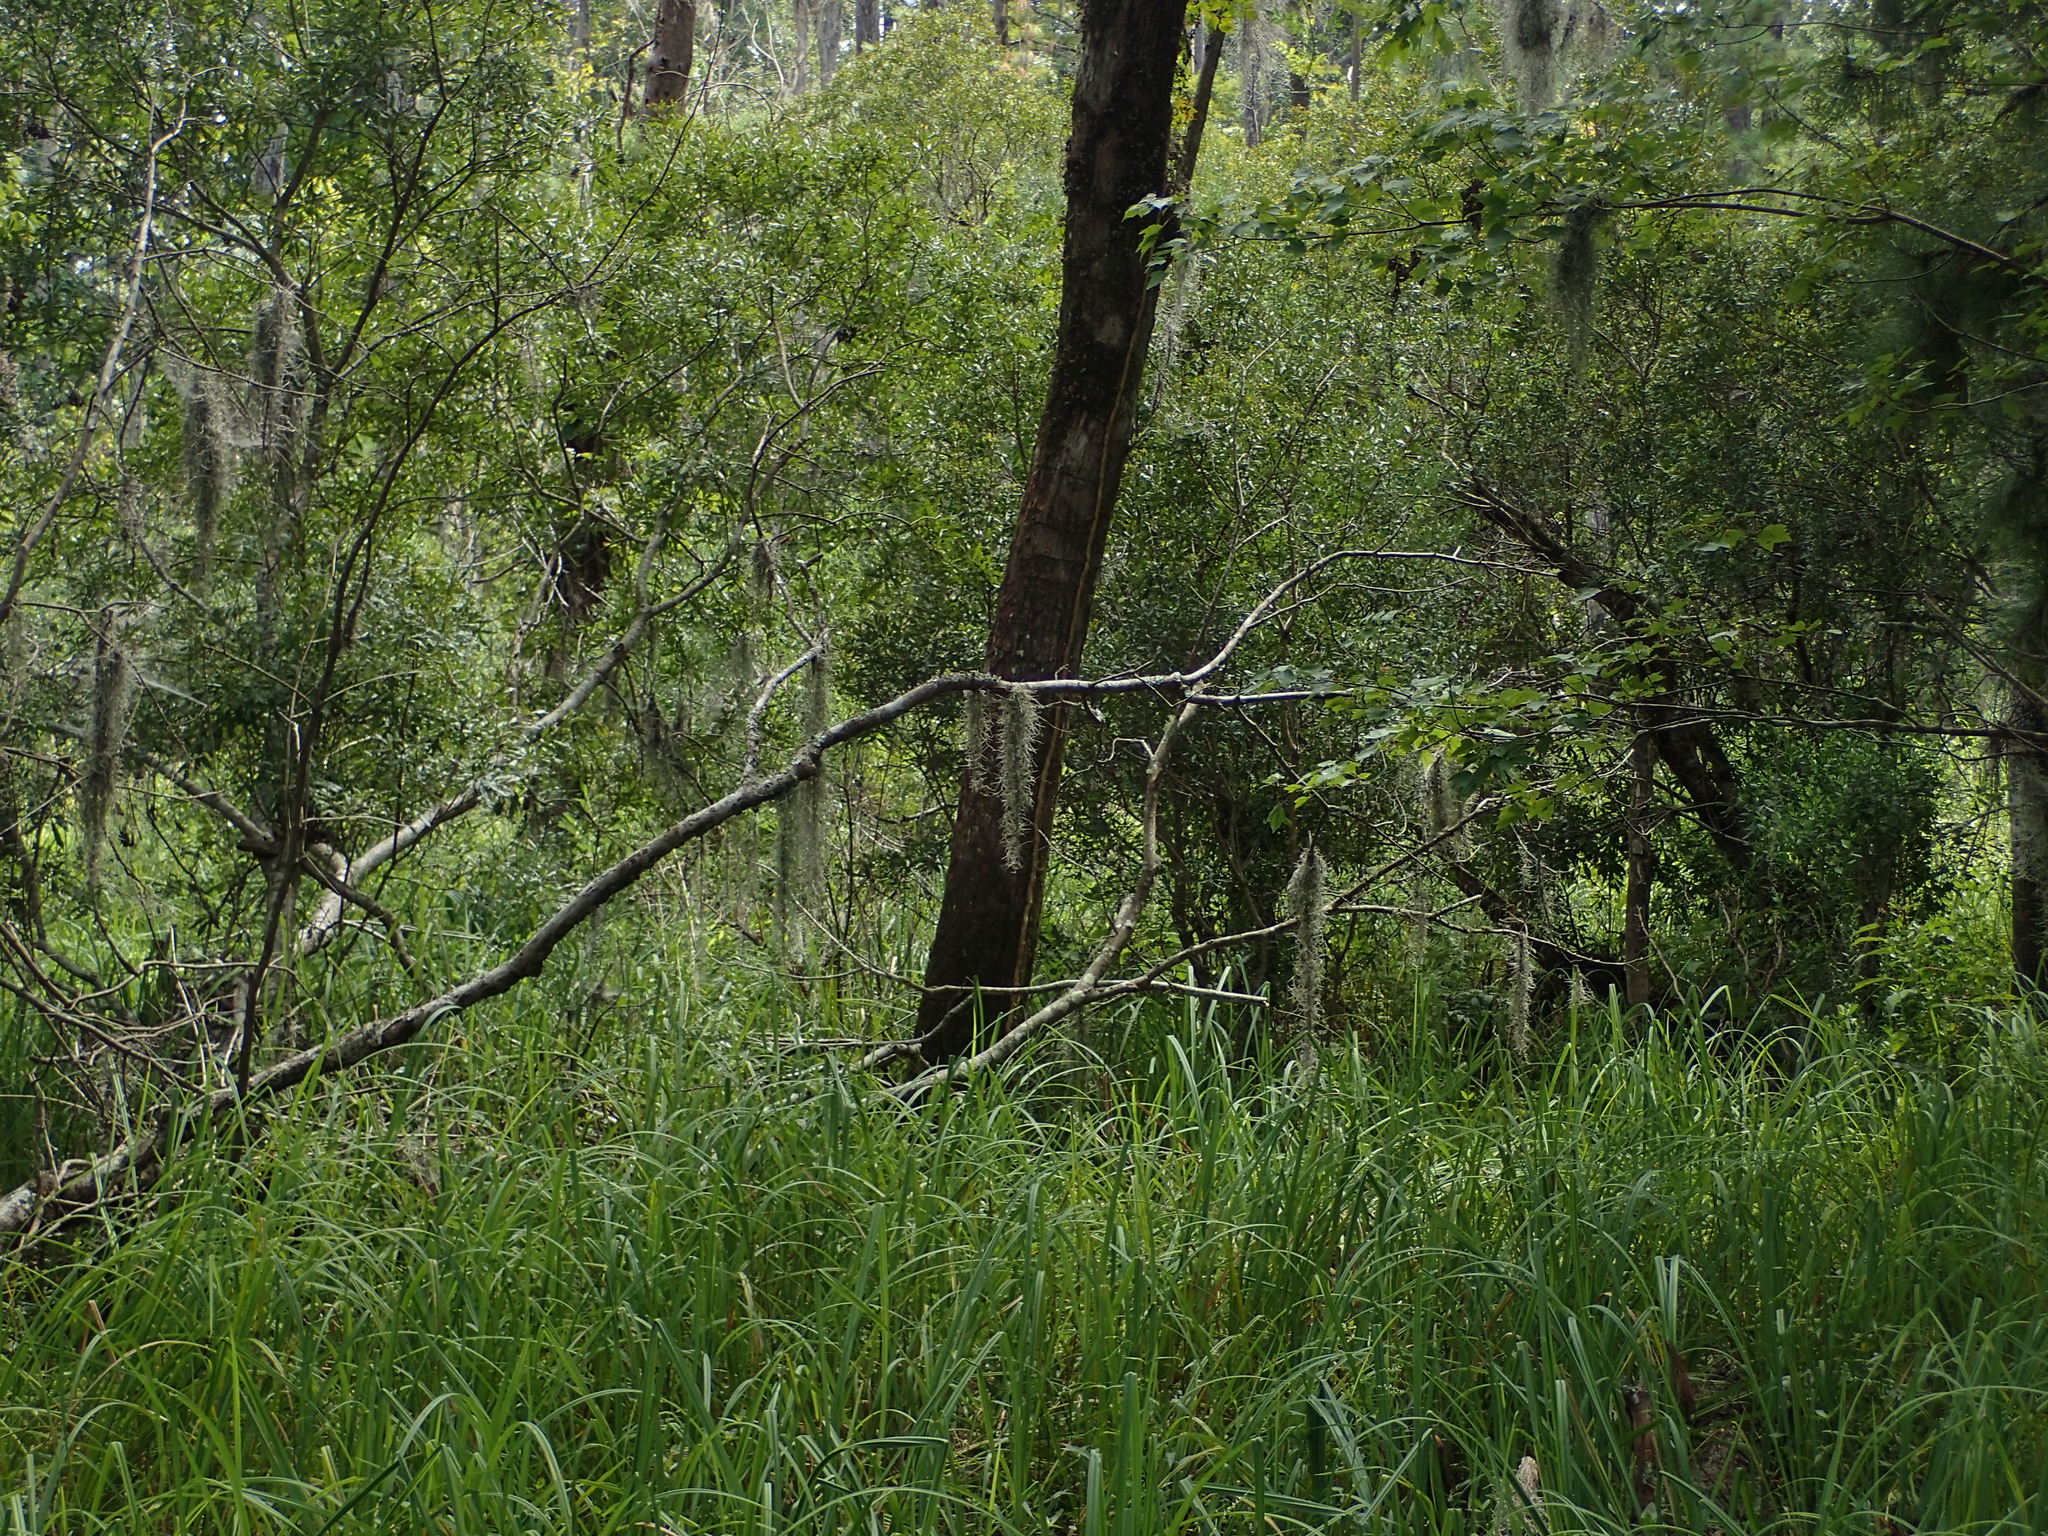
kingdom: Plantae
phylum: Tracheophyta
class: Liliopsida
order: Poales
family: Bromeliaceae
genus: Tillandsia
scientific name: Tillandsia usneoides
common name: Spanish moss
